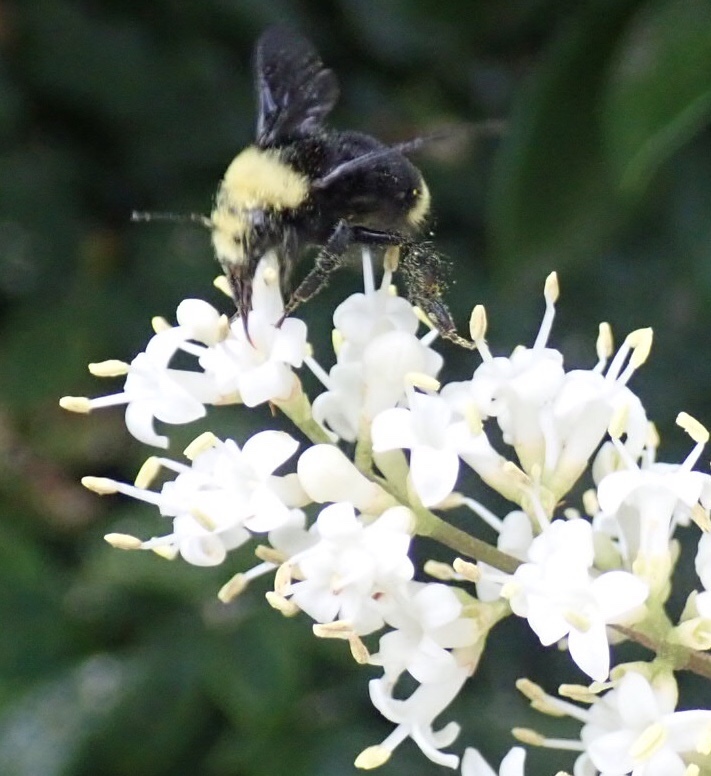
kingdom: Animalia
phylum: Arthropoda
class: Insecta
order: Hymenoptera
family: Apidae
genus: Bombus
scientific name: Bombus vosnesenskii
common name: Vosnesensky bumble bee
